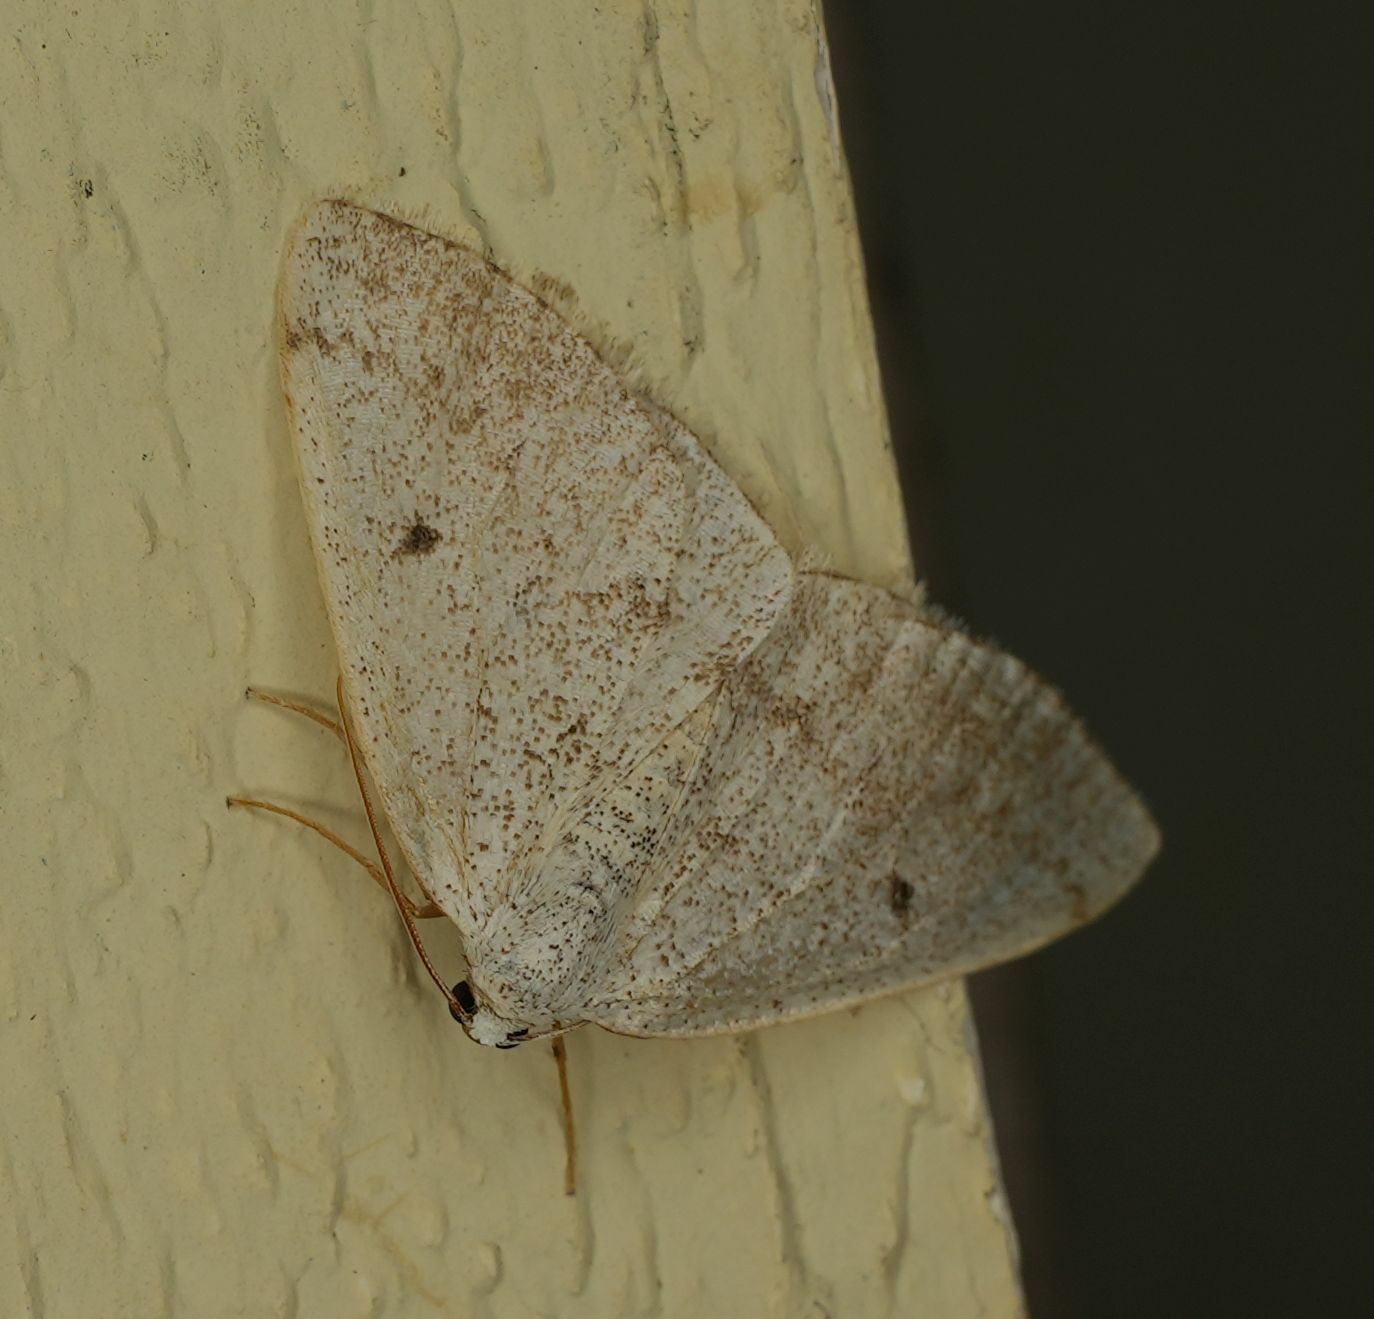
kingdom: Animalia
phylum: Arthropoda
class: Insecta
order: Lepidoptera
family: Geometridae
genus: Lomographa
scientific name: Lomographa glomeraria
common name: Gray spring moth
